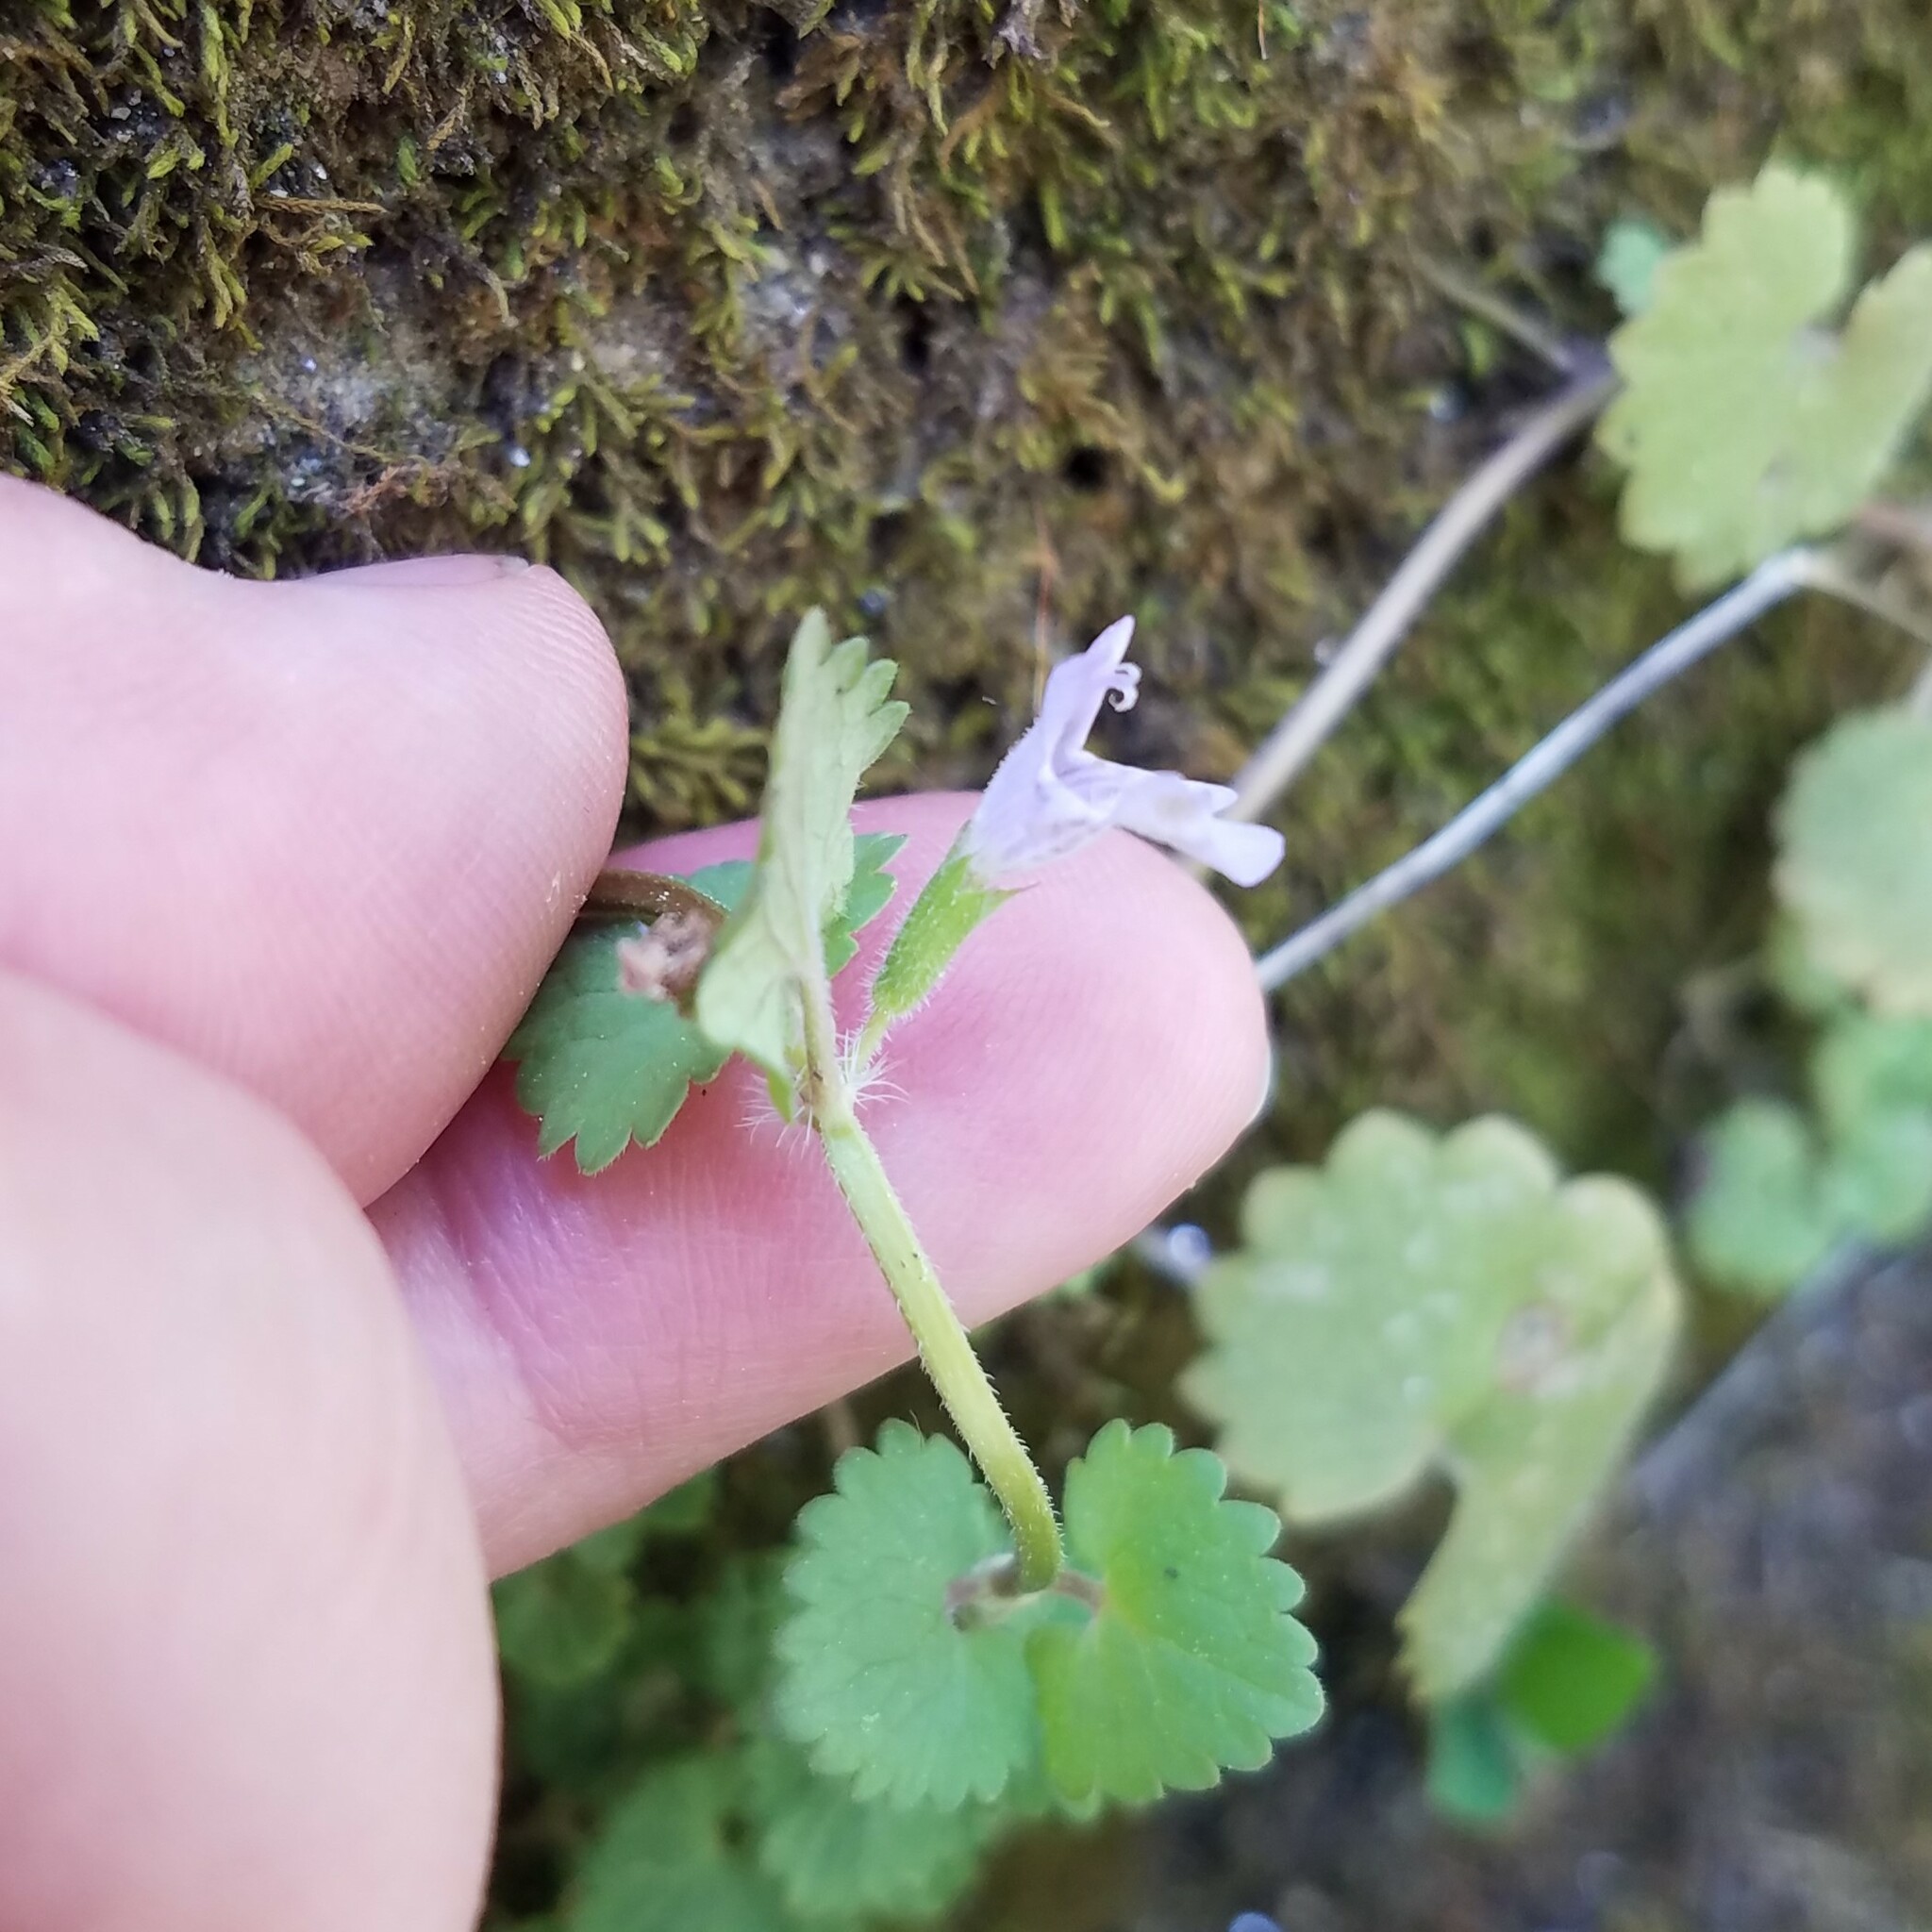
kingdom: Plantae
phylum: Tracheophyta
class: Magnoliopsida
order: Lamiales
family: Lamiaceae
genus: Glechoma
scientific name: Glechoma hederacea
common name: Ground ivy
